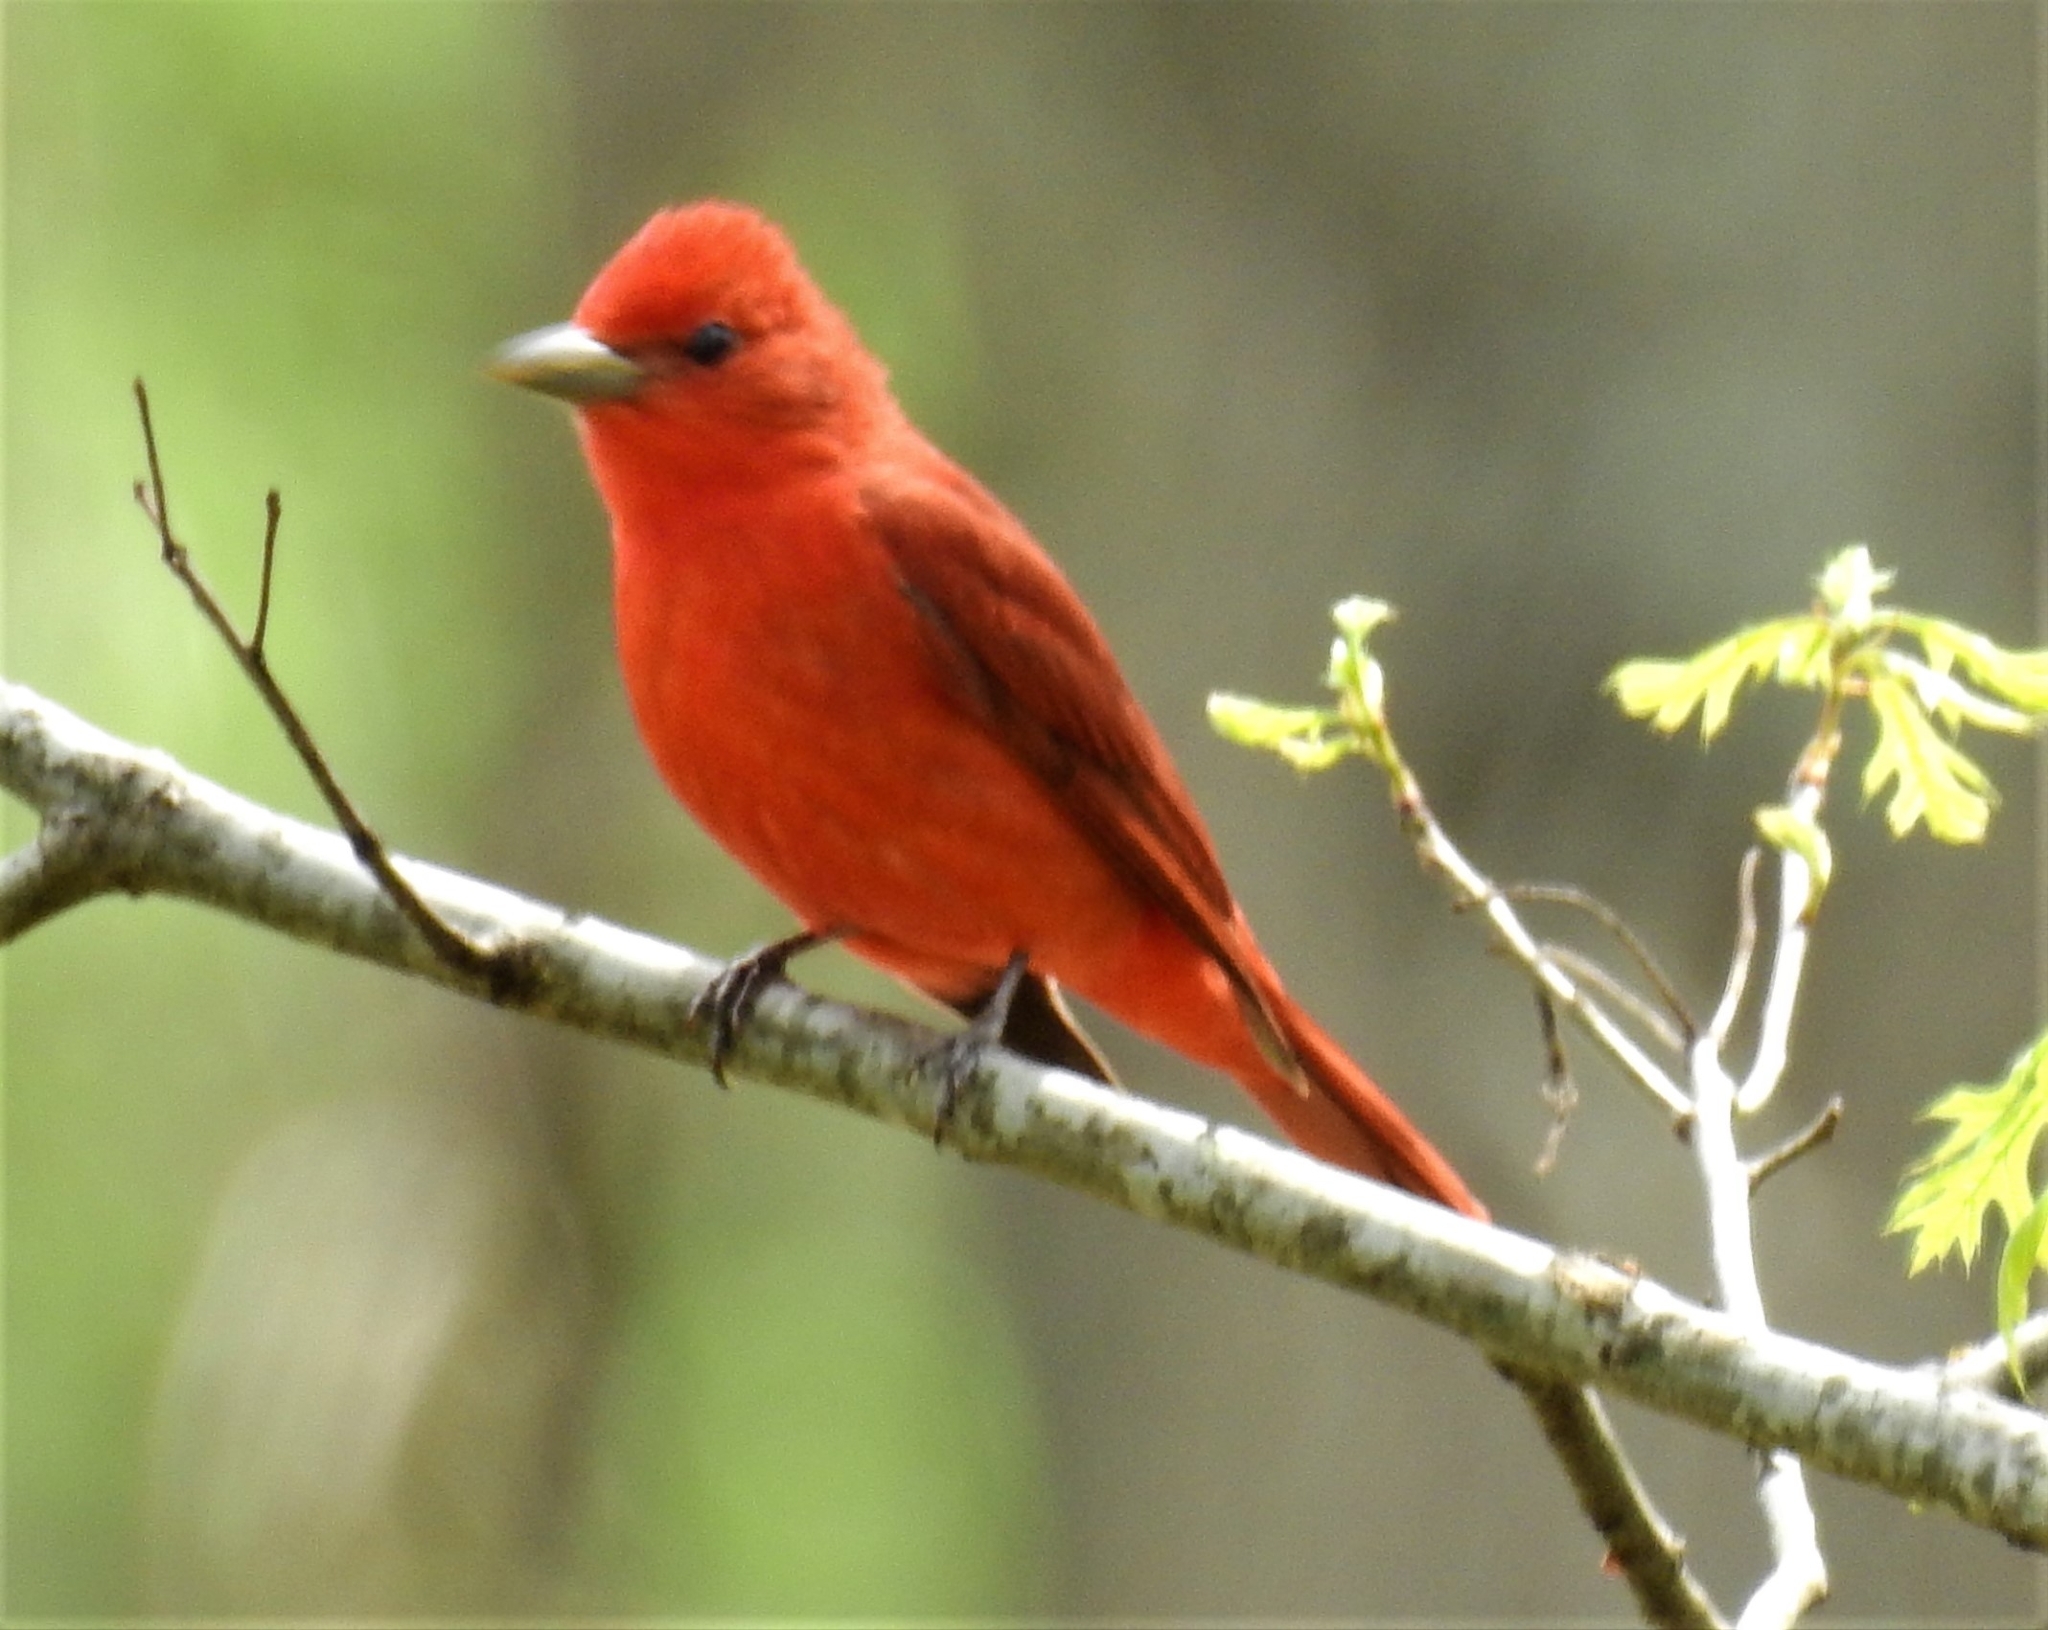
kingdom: Animalia
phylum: Chordata
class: Aves
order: Passeriformes
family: Cardinalidae
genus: Piranga
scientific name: Piranga rubra
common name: Summer tanager
